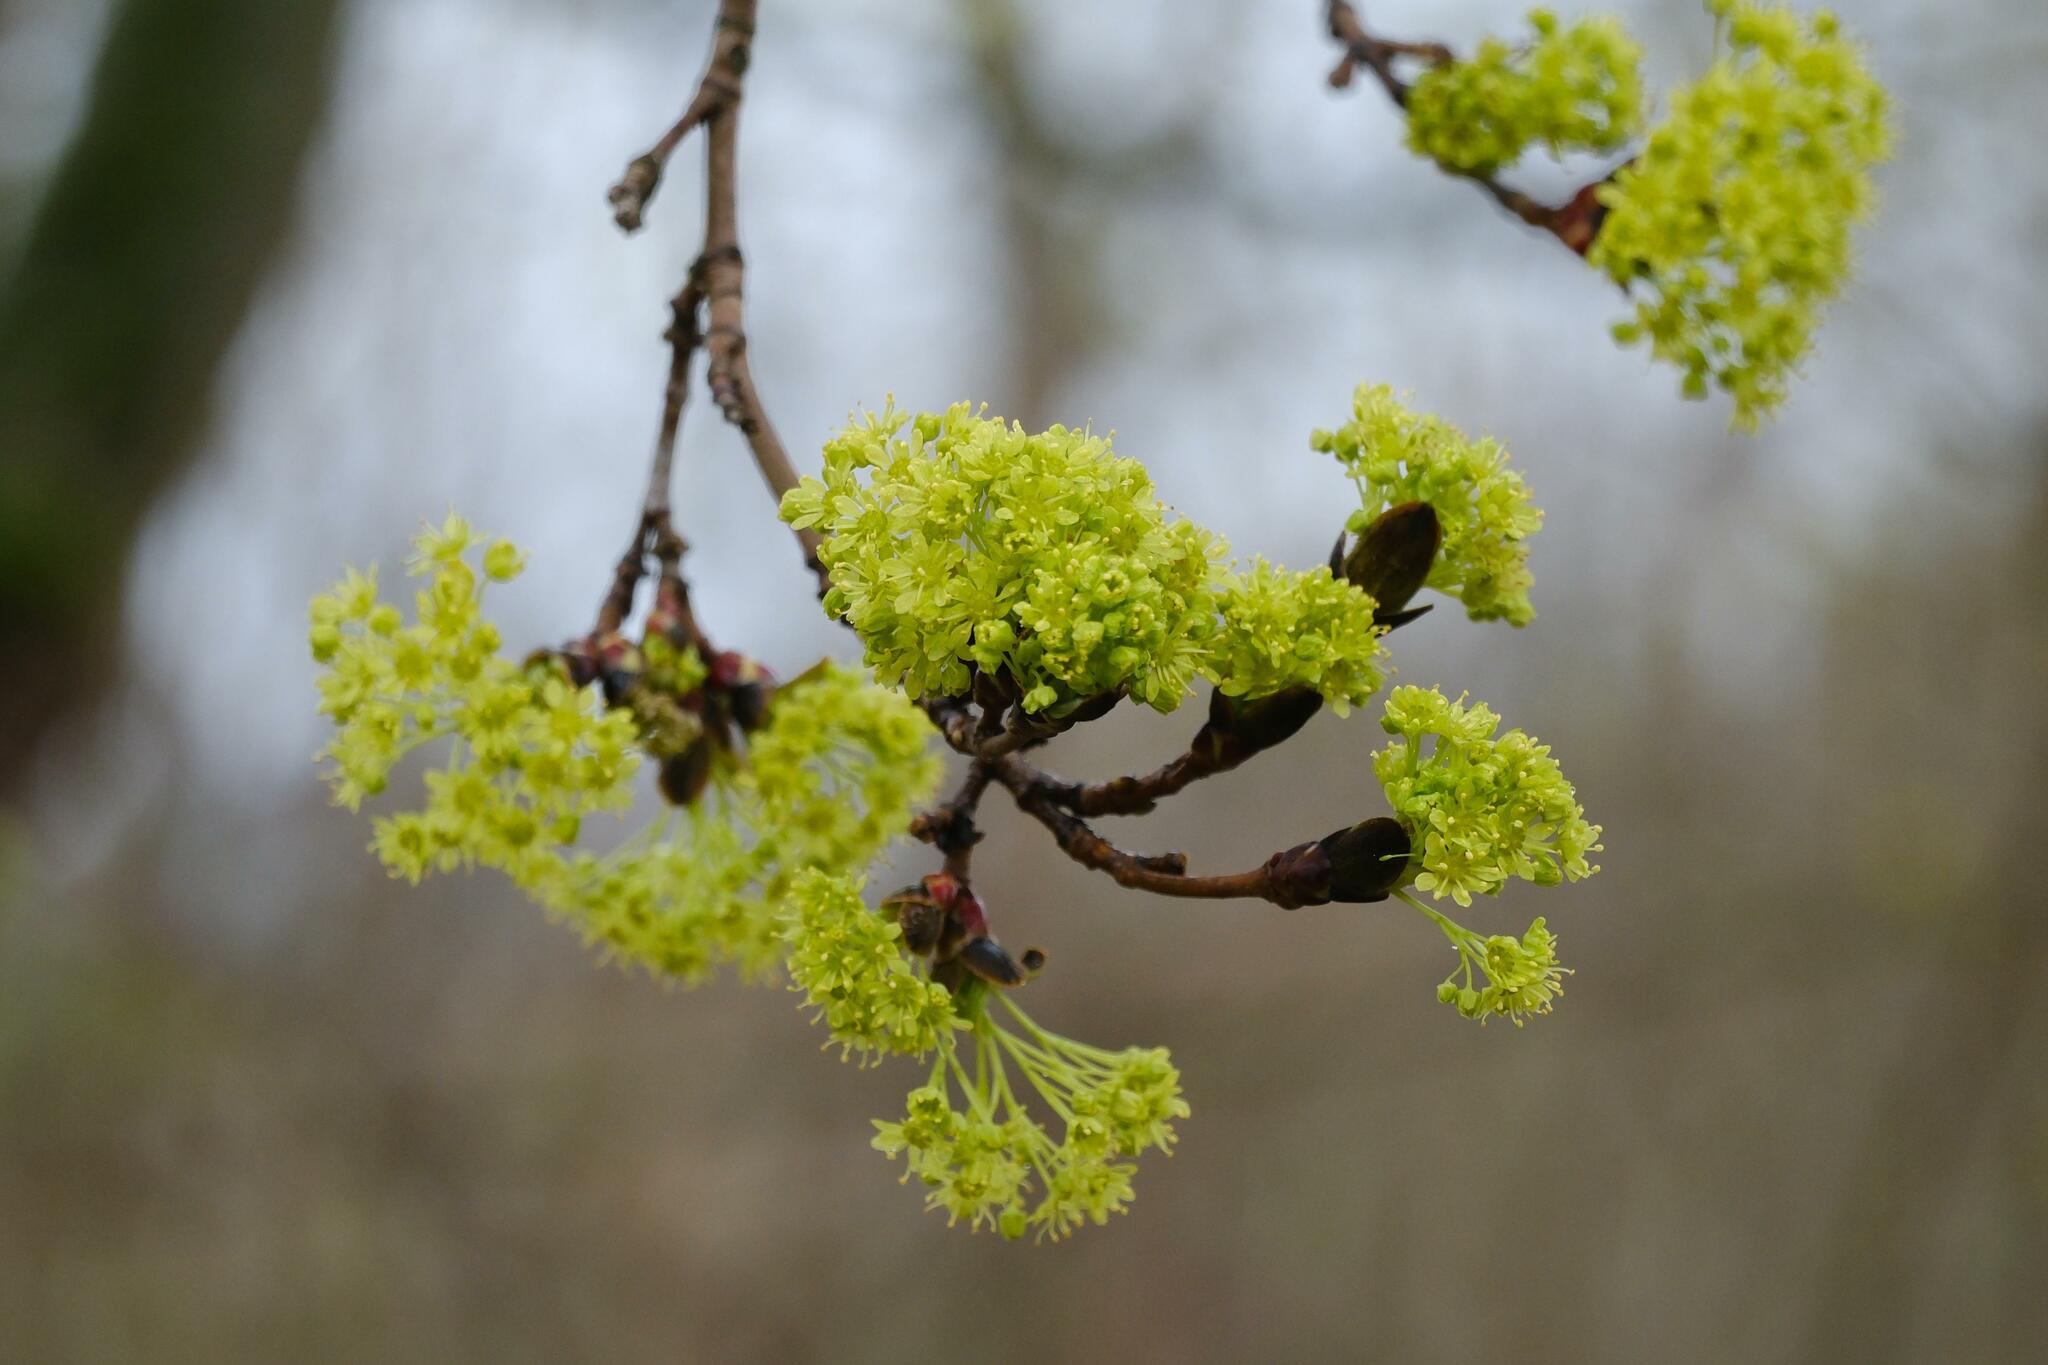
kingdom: Plantae
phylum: Tracheophyta
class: Magnoliopsida
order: Sapindales
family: Sapindaceae
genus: Acer
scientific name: Acer platanoides
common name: Norway maple
